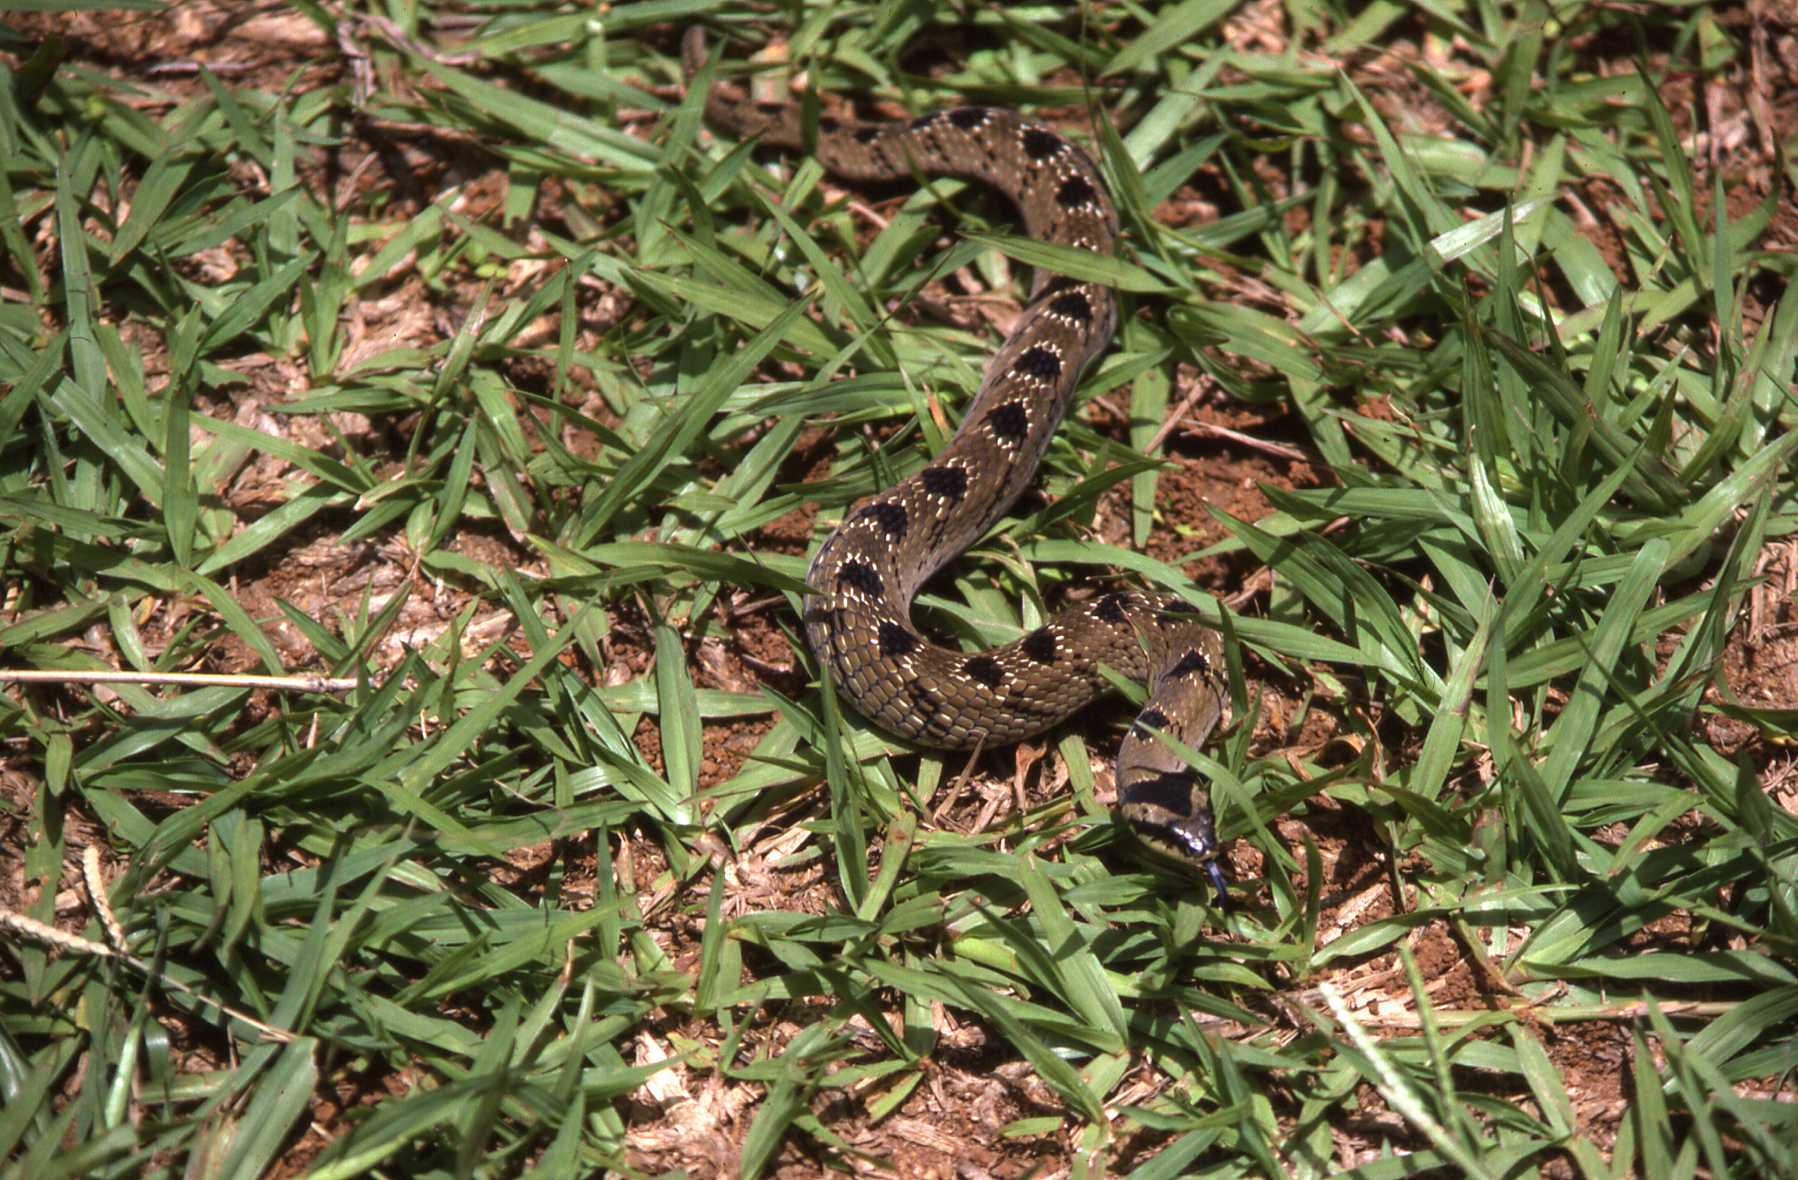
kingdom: Animalia
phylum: Chordata
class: Squamata
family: Viperidae
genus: Causus
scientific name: Causus defilippii
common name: Snouted night adder
